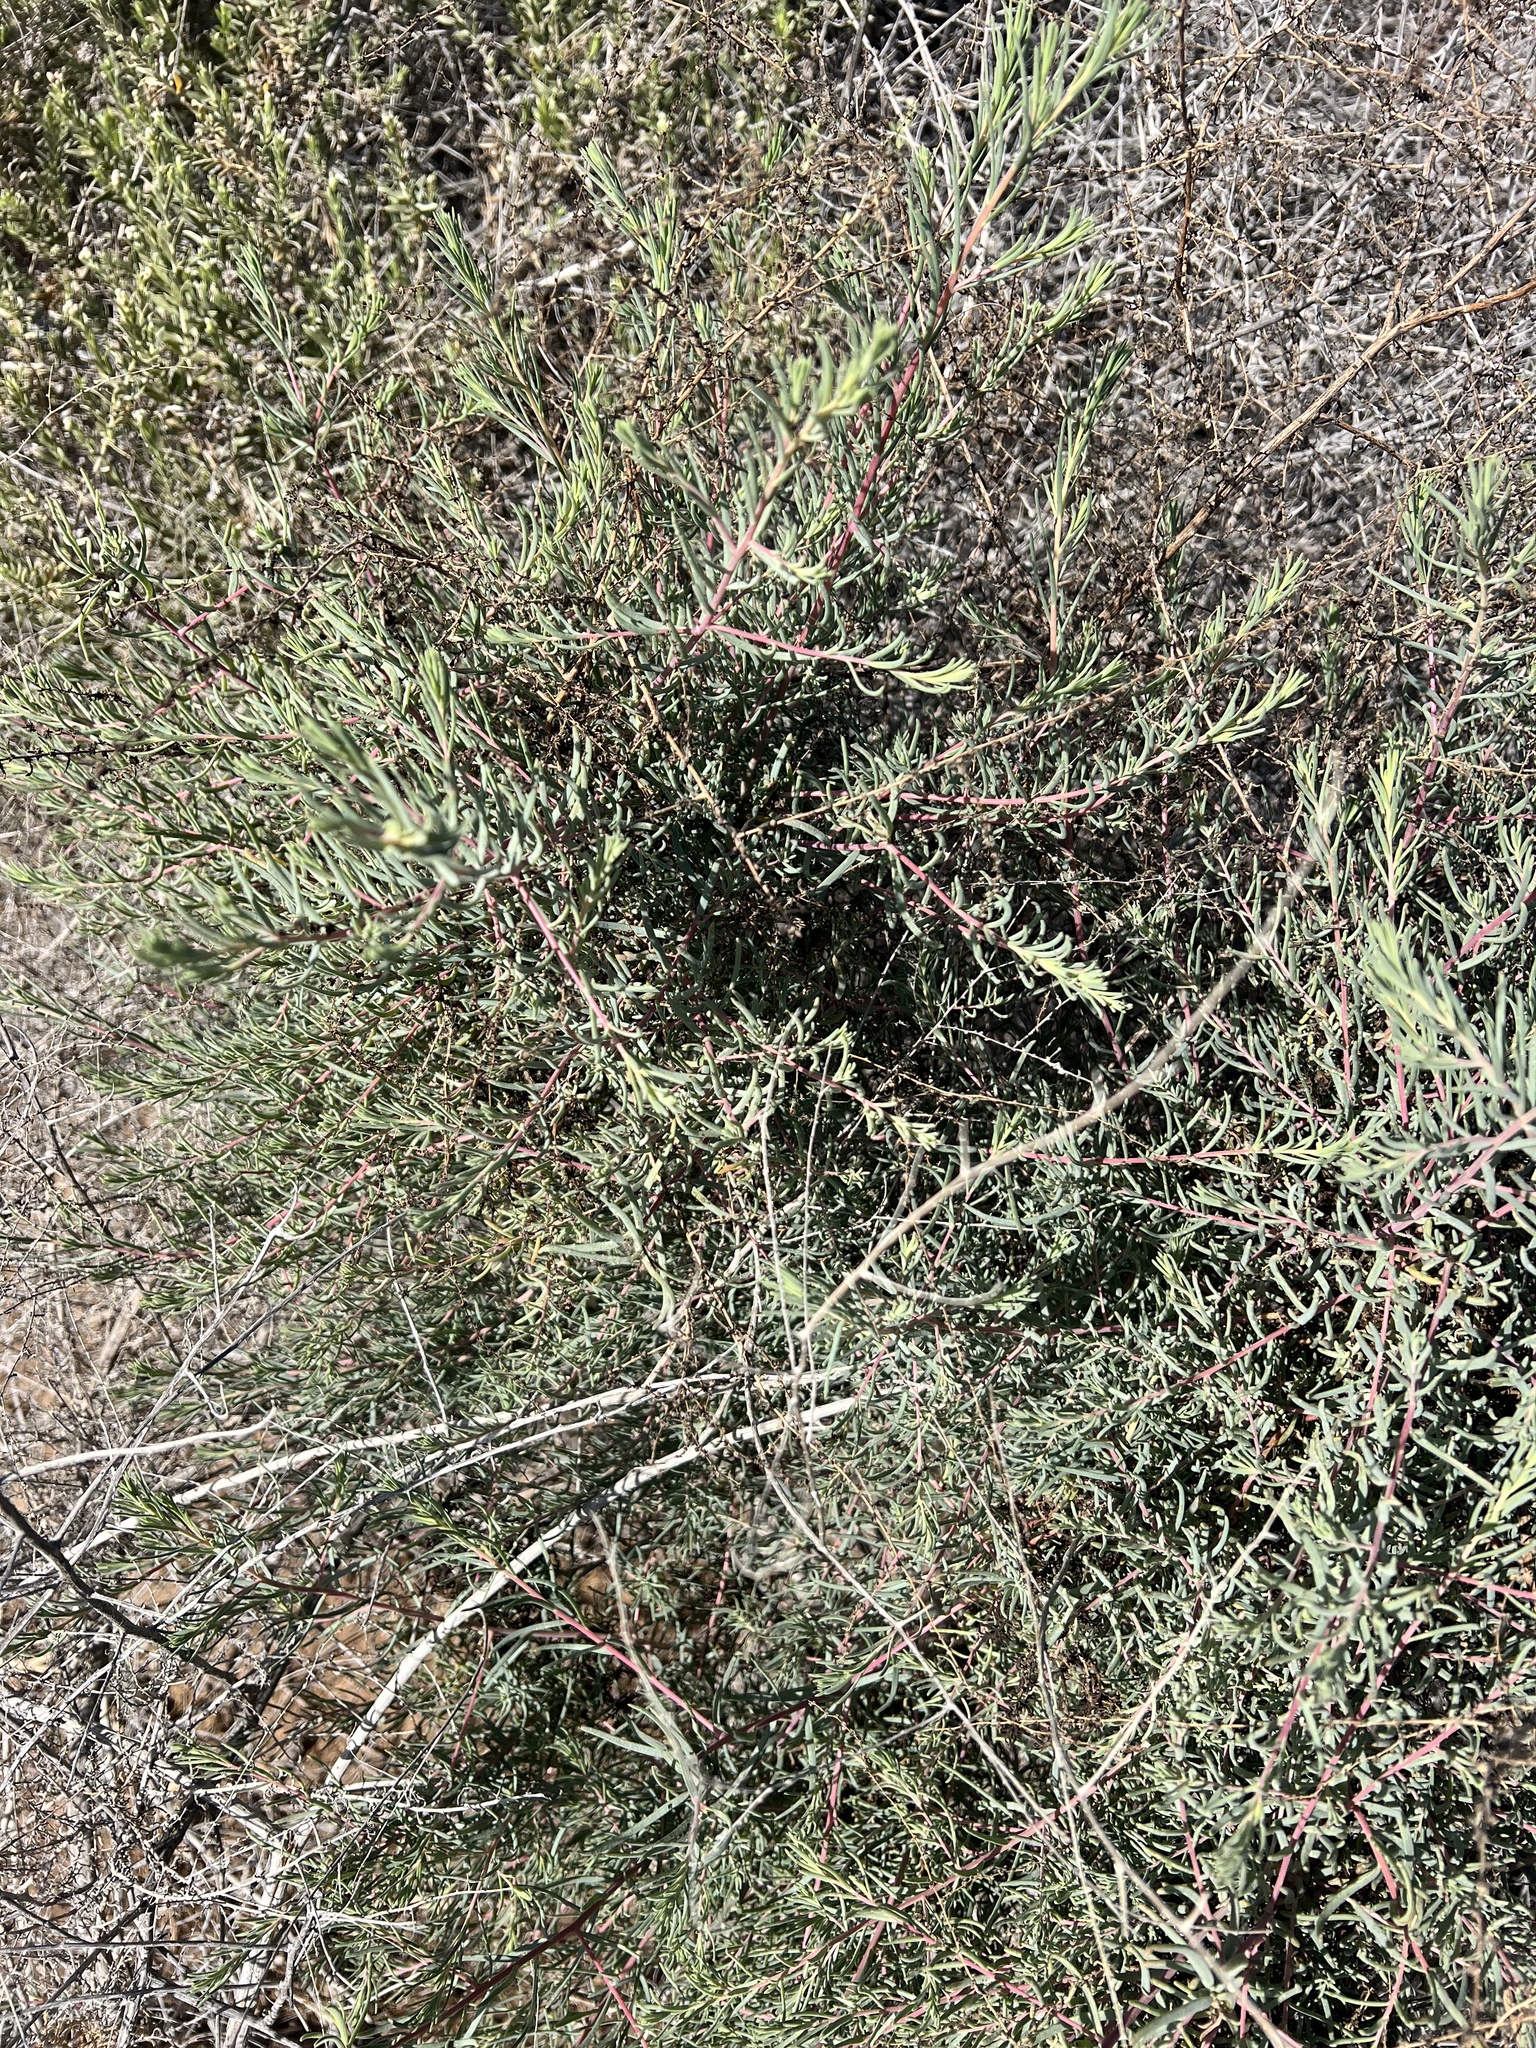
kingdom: Plantae
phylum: Tracheophyta
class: Magnoliopsida
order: Caryophyllales
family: Amaranthaceae
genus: Suaeda
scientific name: Suaeda nigra
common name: Bush seepweed
